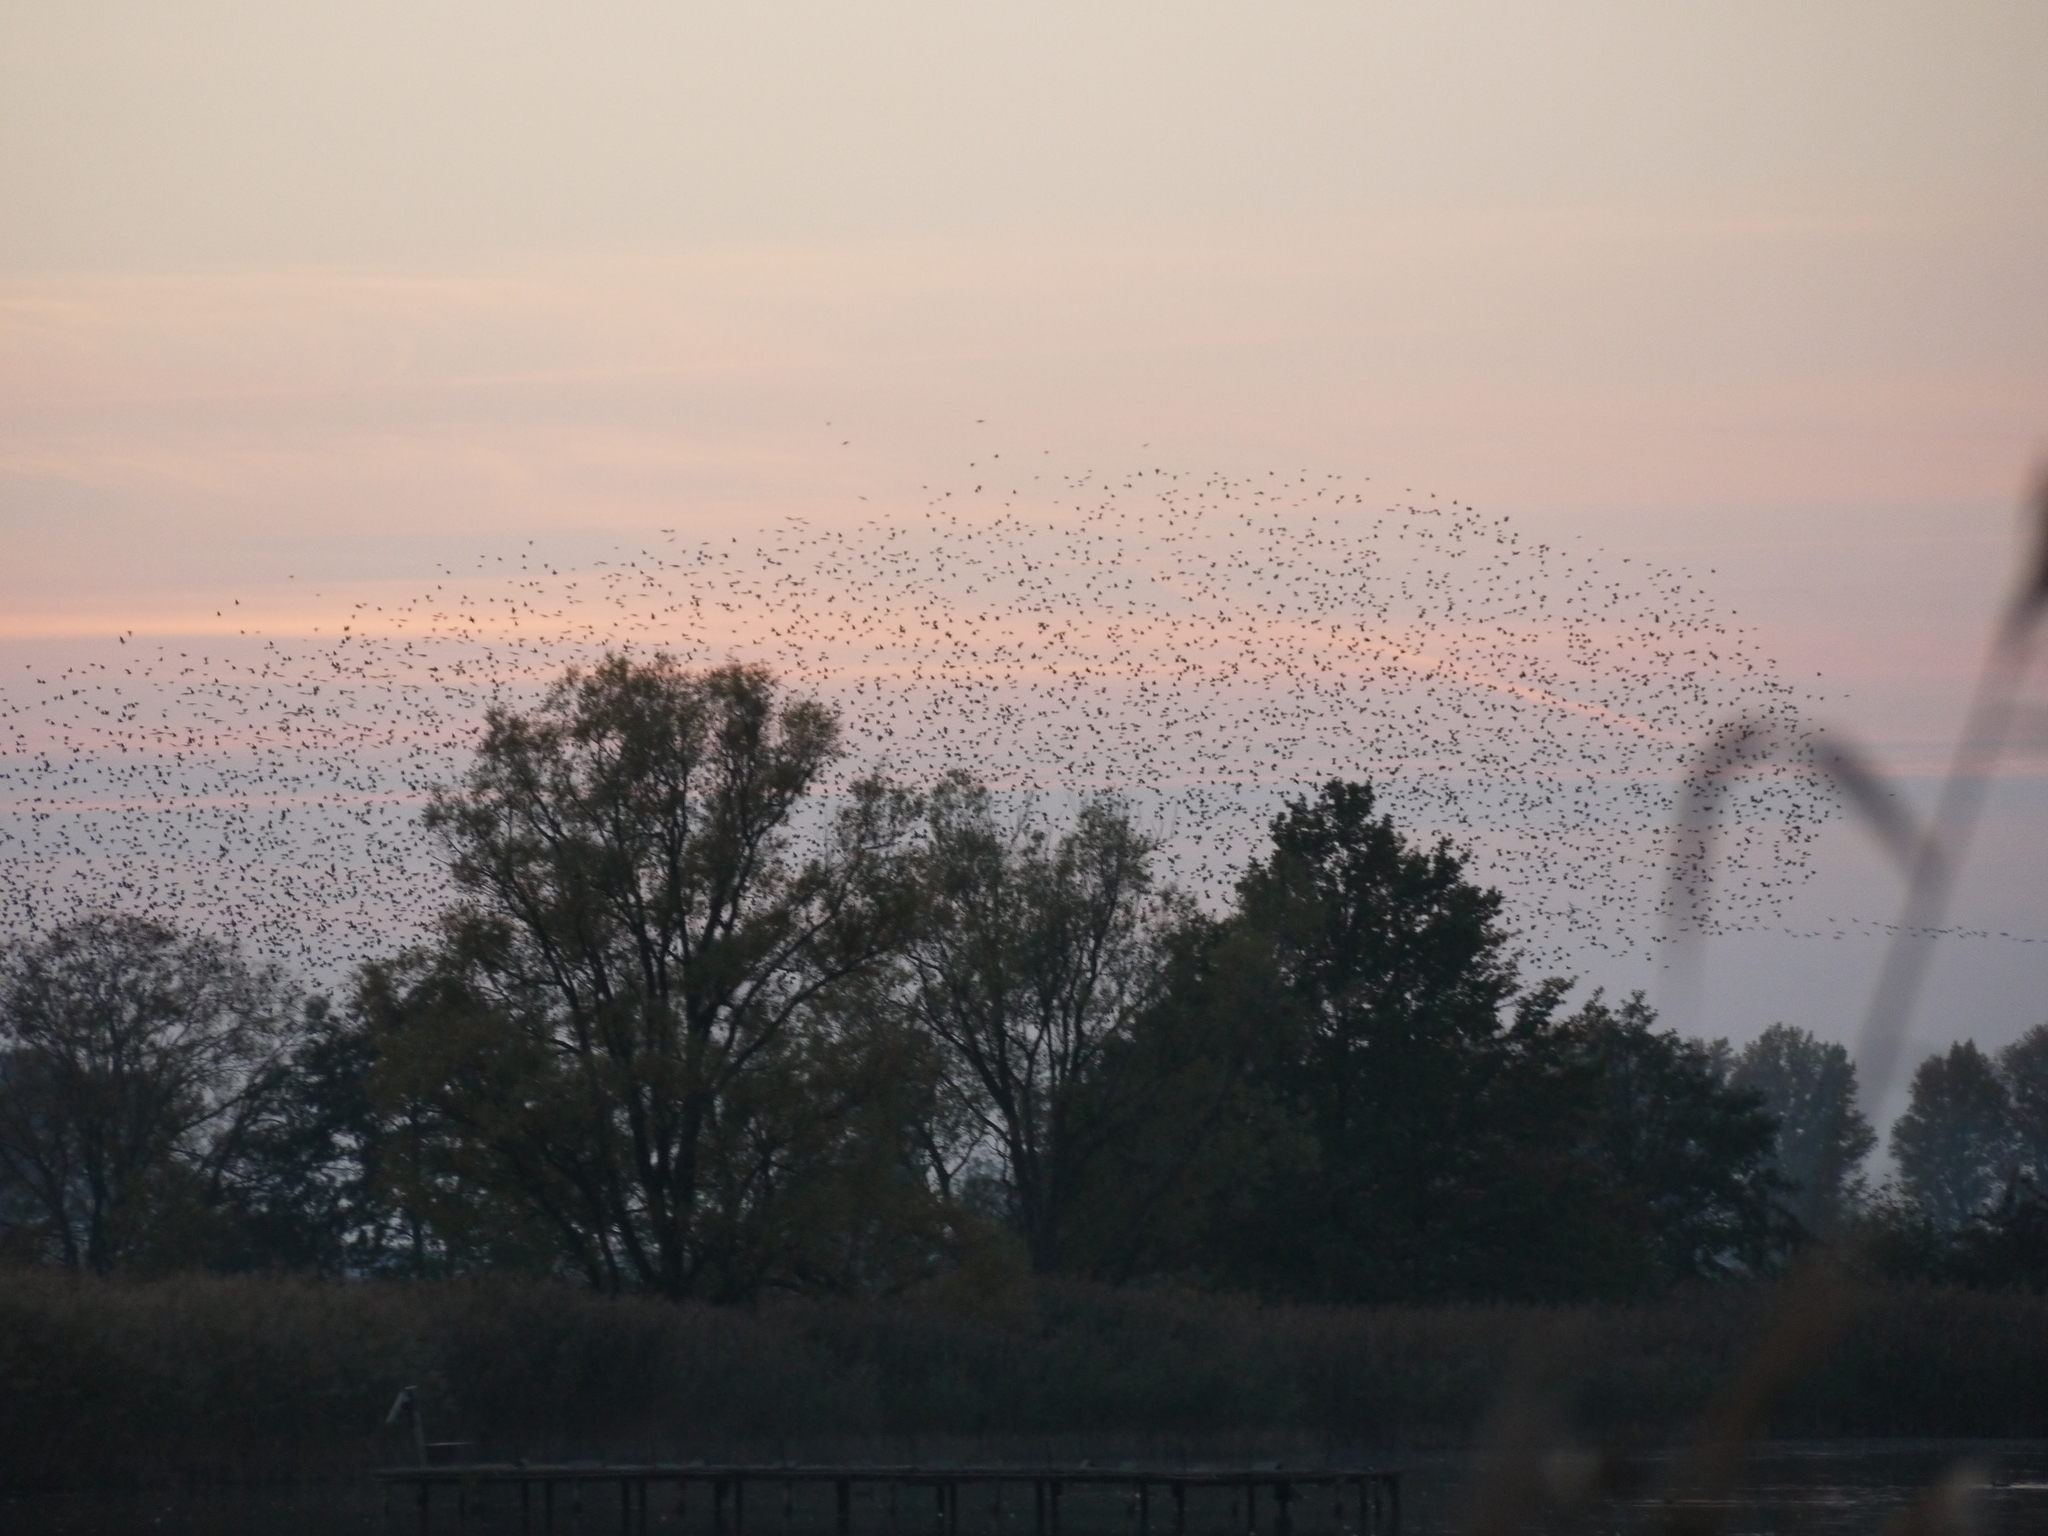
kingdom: Animalia
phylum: Chordata
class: Aves
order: Passeriformes
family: Sturnidae
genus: Sturnus
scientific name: Sturnus vulgaris
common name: Common starling
